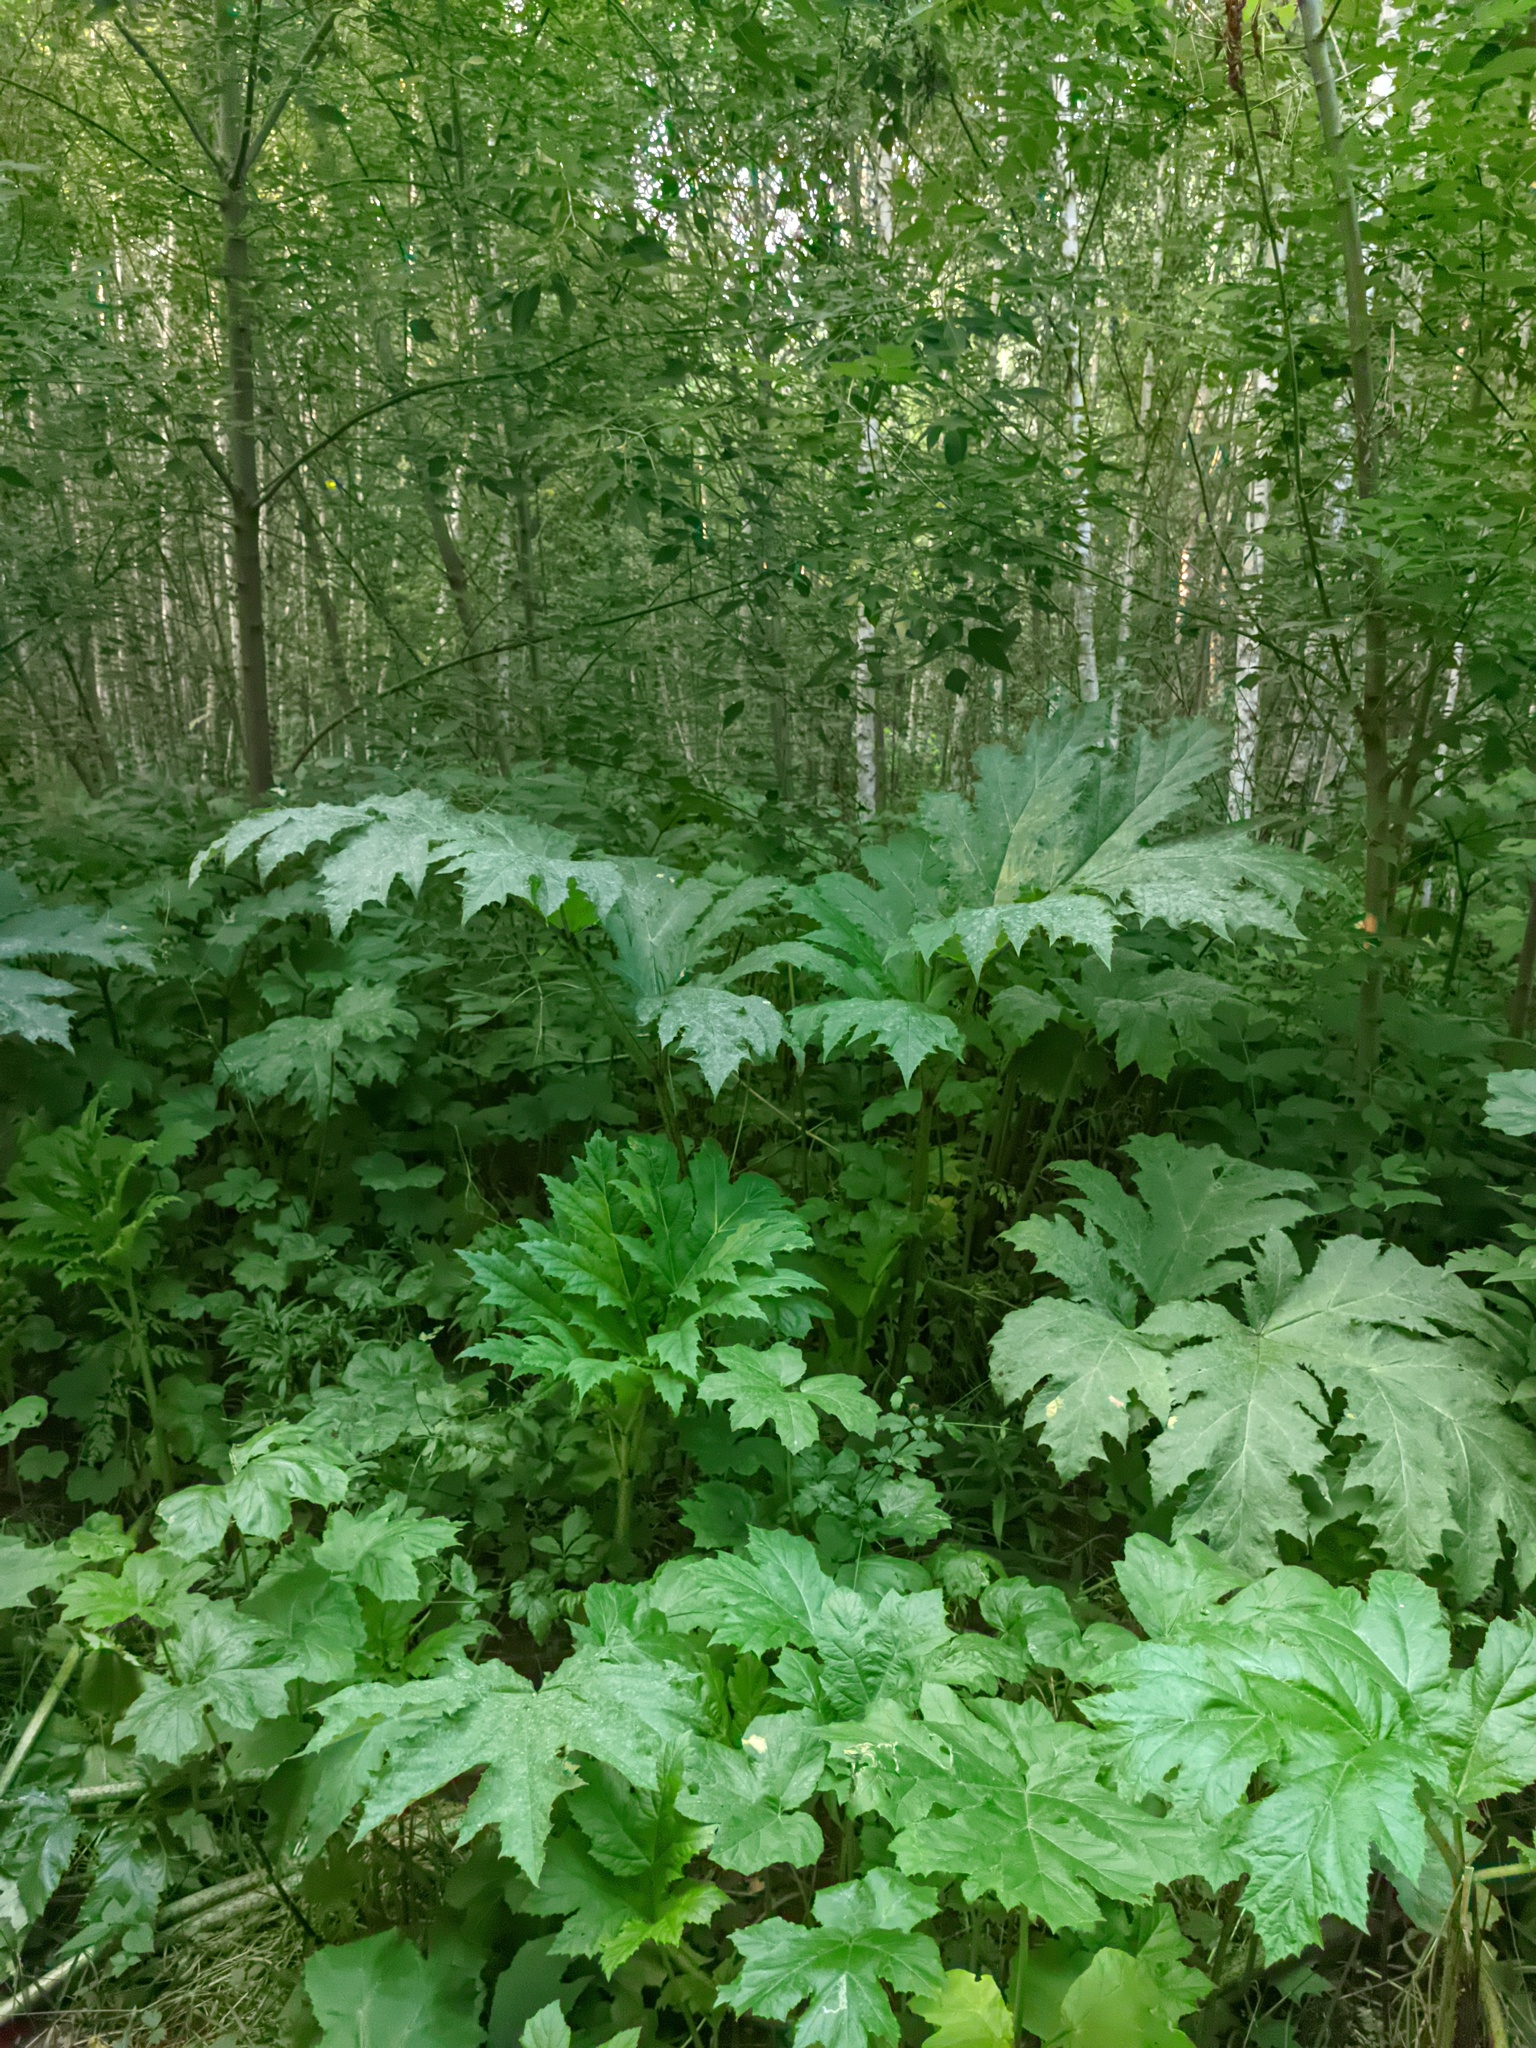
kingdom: Plantae
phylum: Tracheophyta
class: Magnoliopsida
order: Apiales
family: Apiaceae
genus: Heracleum
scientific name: Heracleum sosnowskyi
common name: Sosnowsky's hogweed
